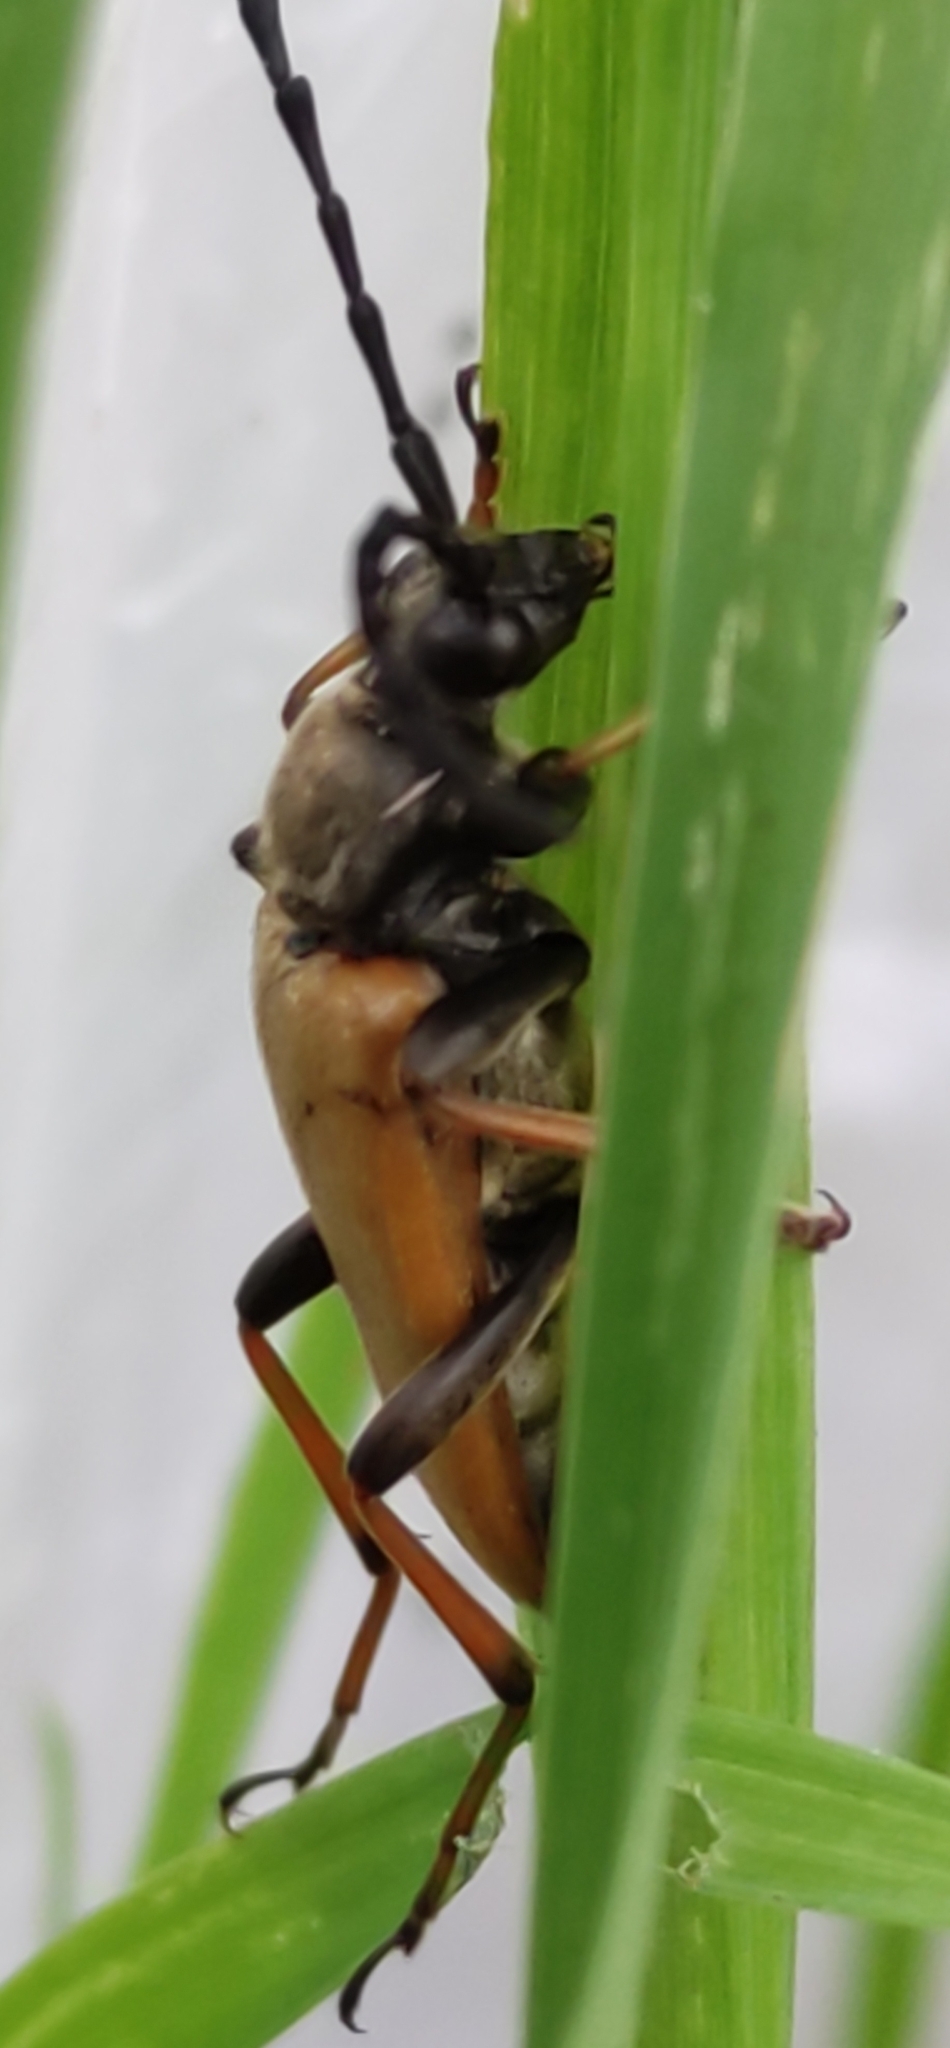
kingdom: Animalia
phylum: Arthropoda
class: Insecta
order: Coleoptera
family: Cerambycidae
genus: Stictoleptura
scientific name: Stictoleptura rubra
